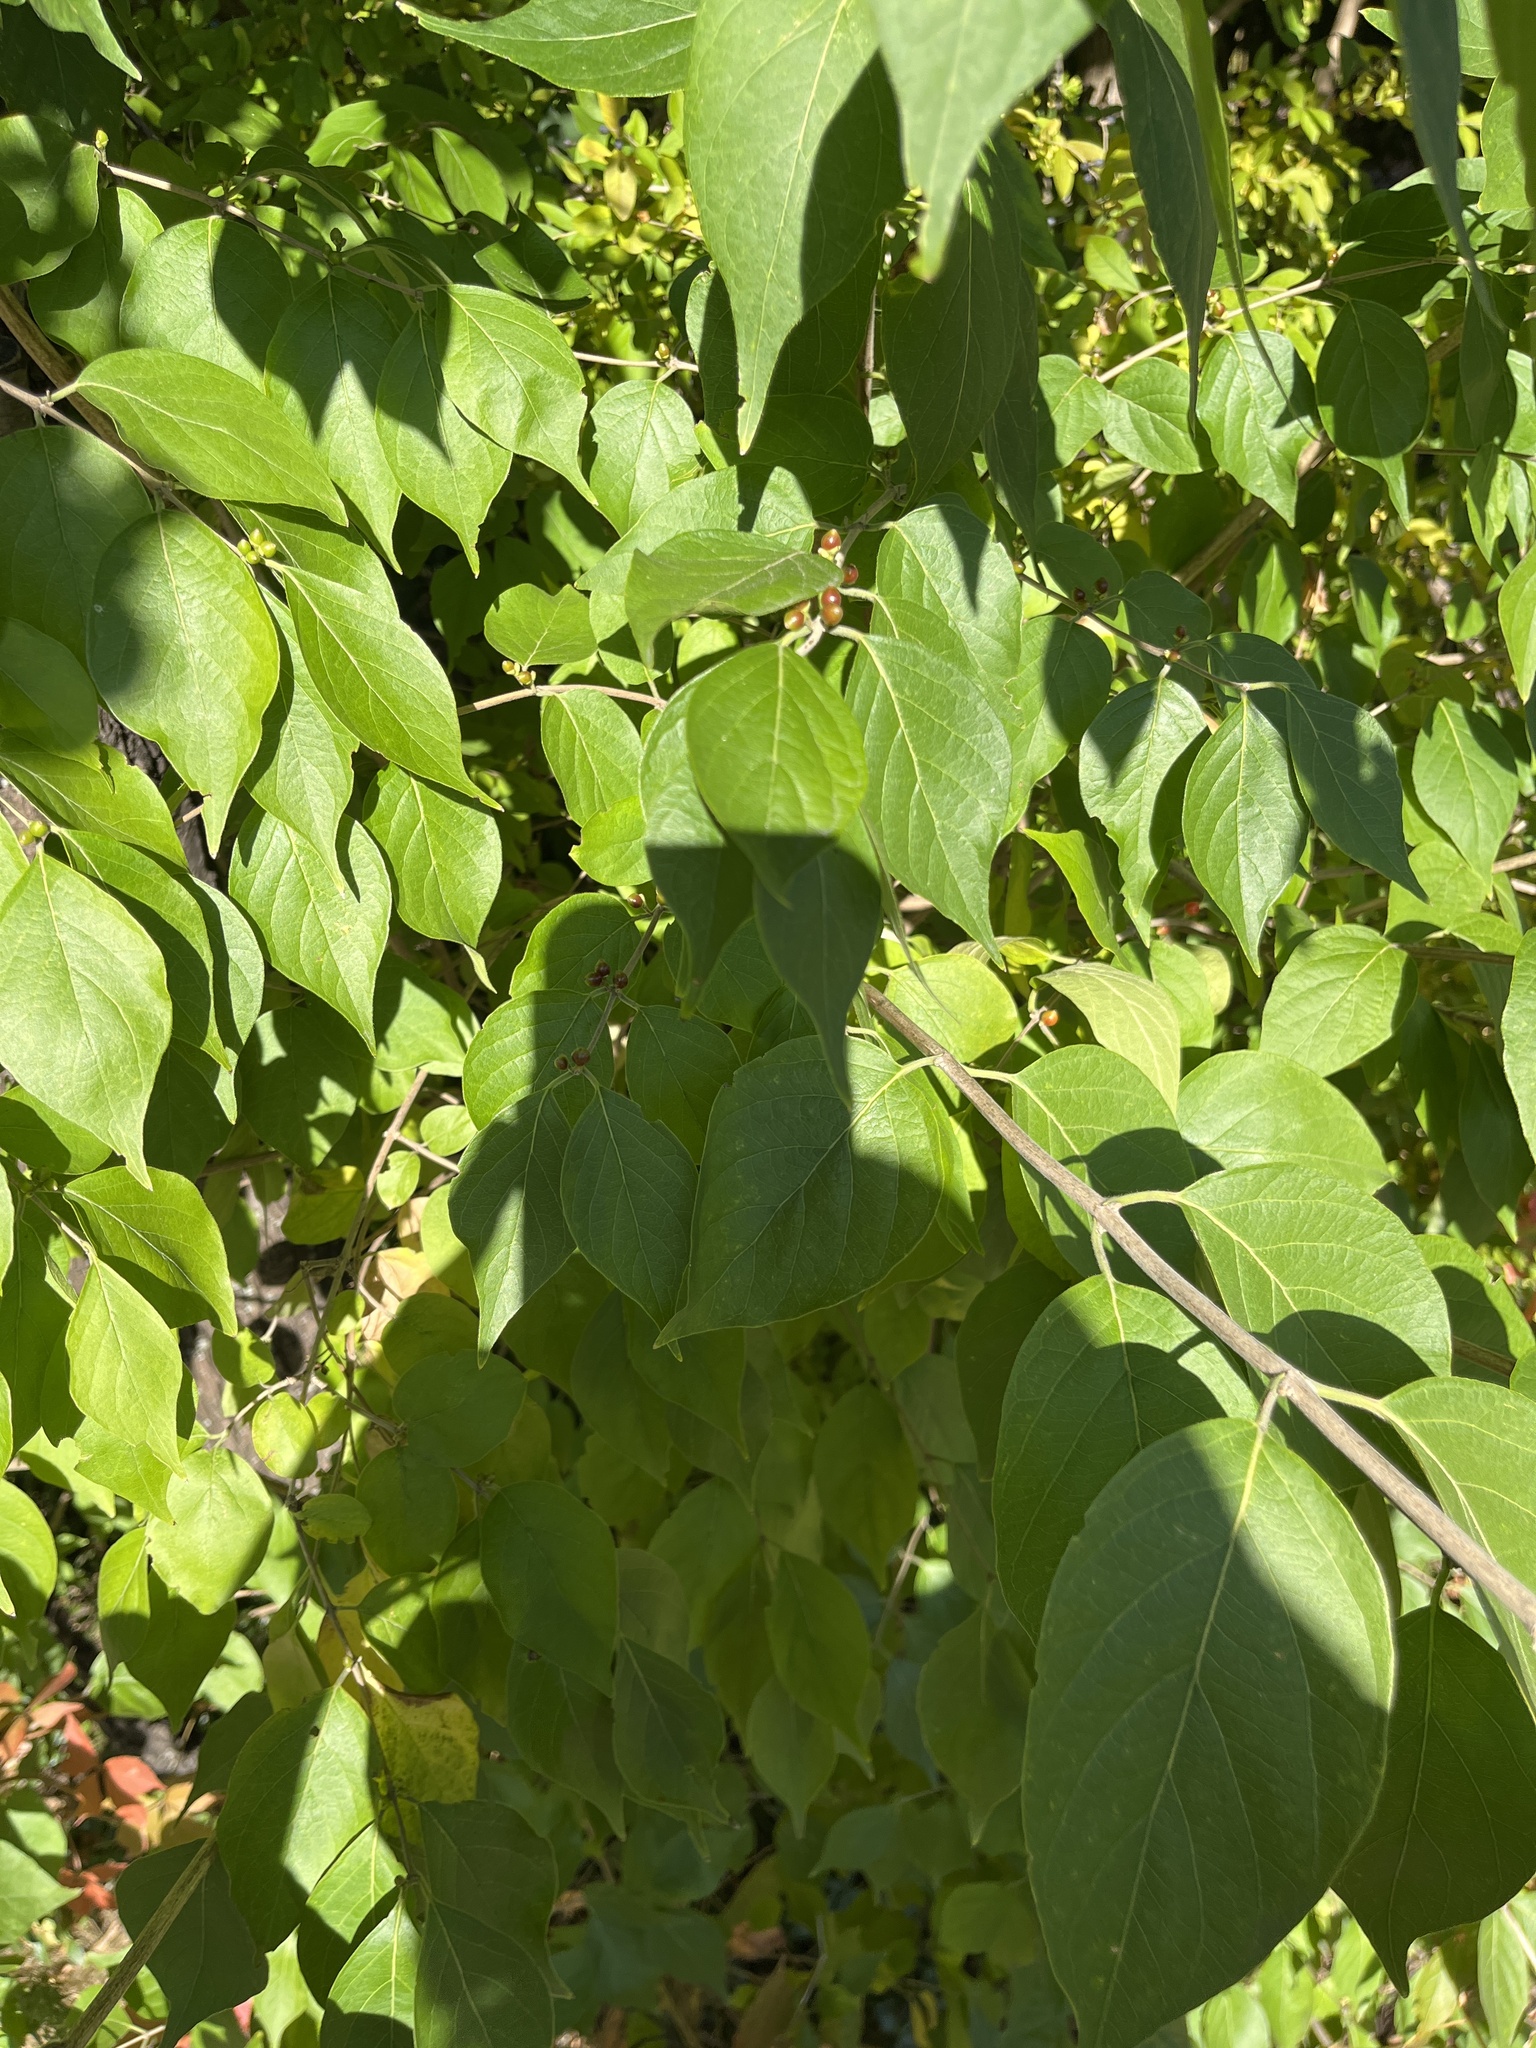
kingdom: Plantae
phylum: Tracheophyta
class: Magnoliopsida
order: Dipsacales
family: Caprifoliaceae
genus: Lonicera
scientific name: Lonicera maackii
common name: Amur honeysuckle
